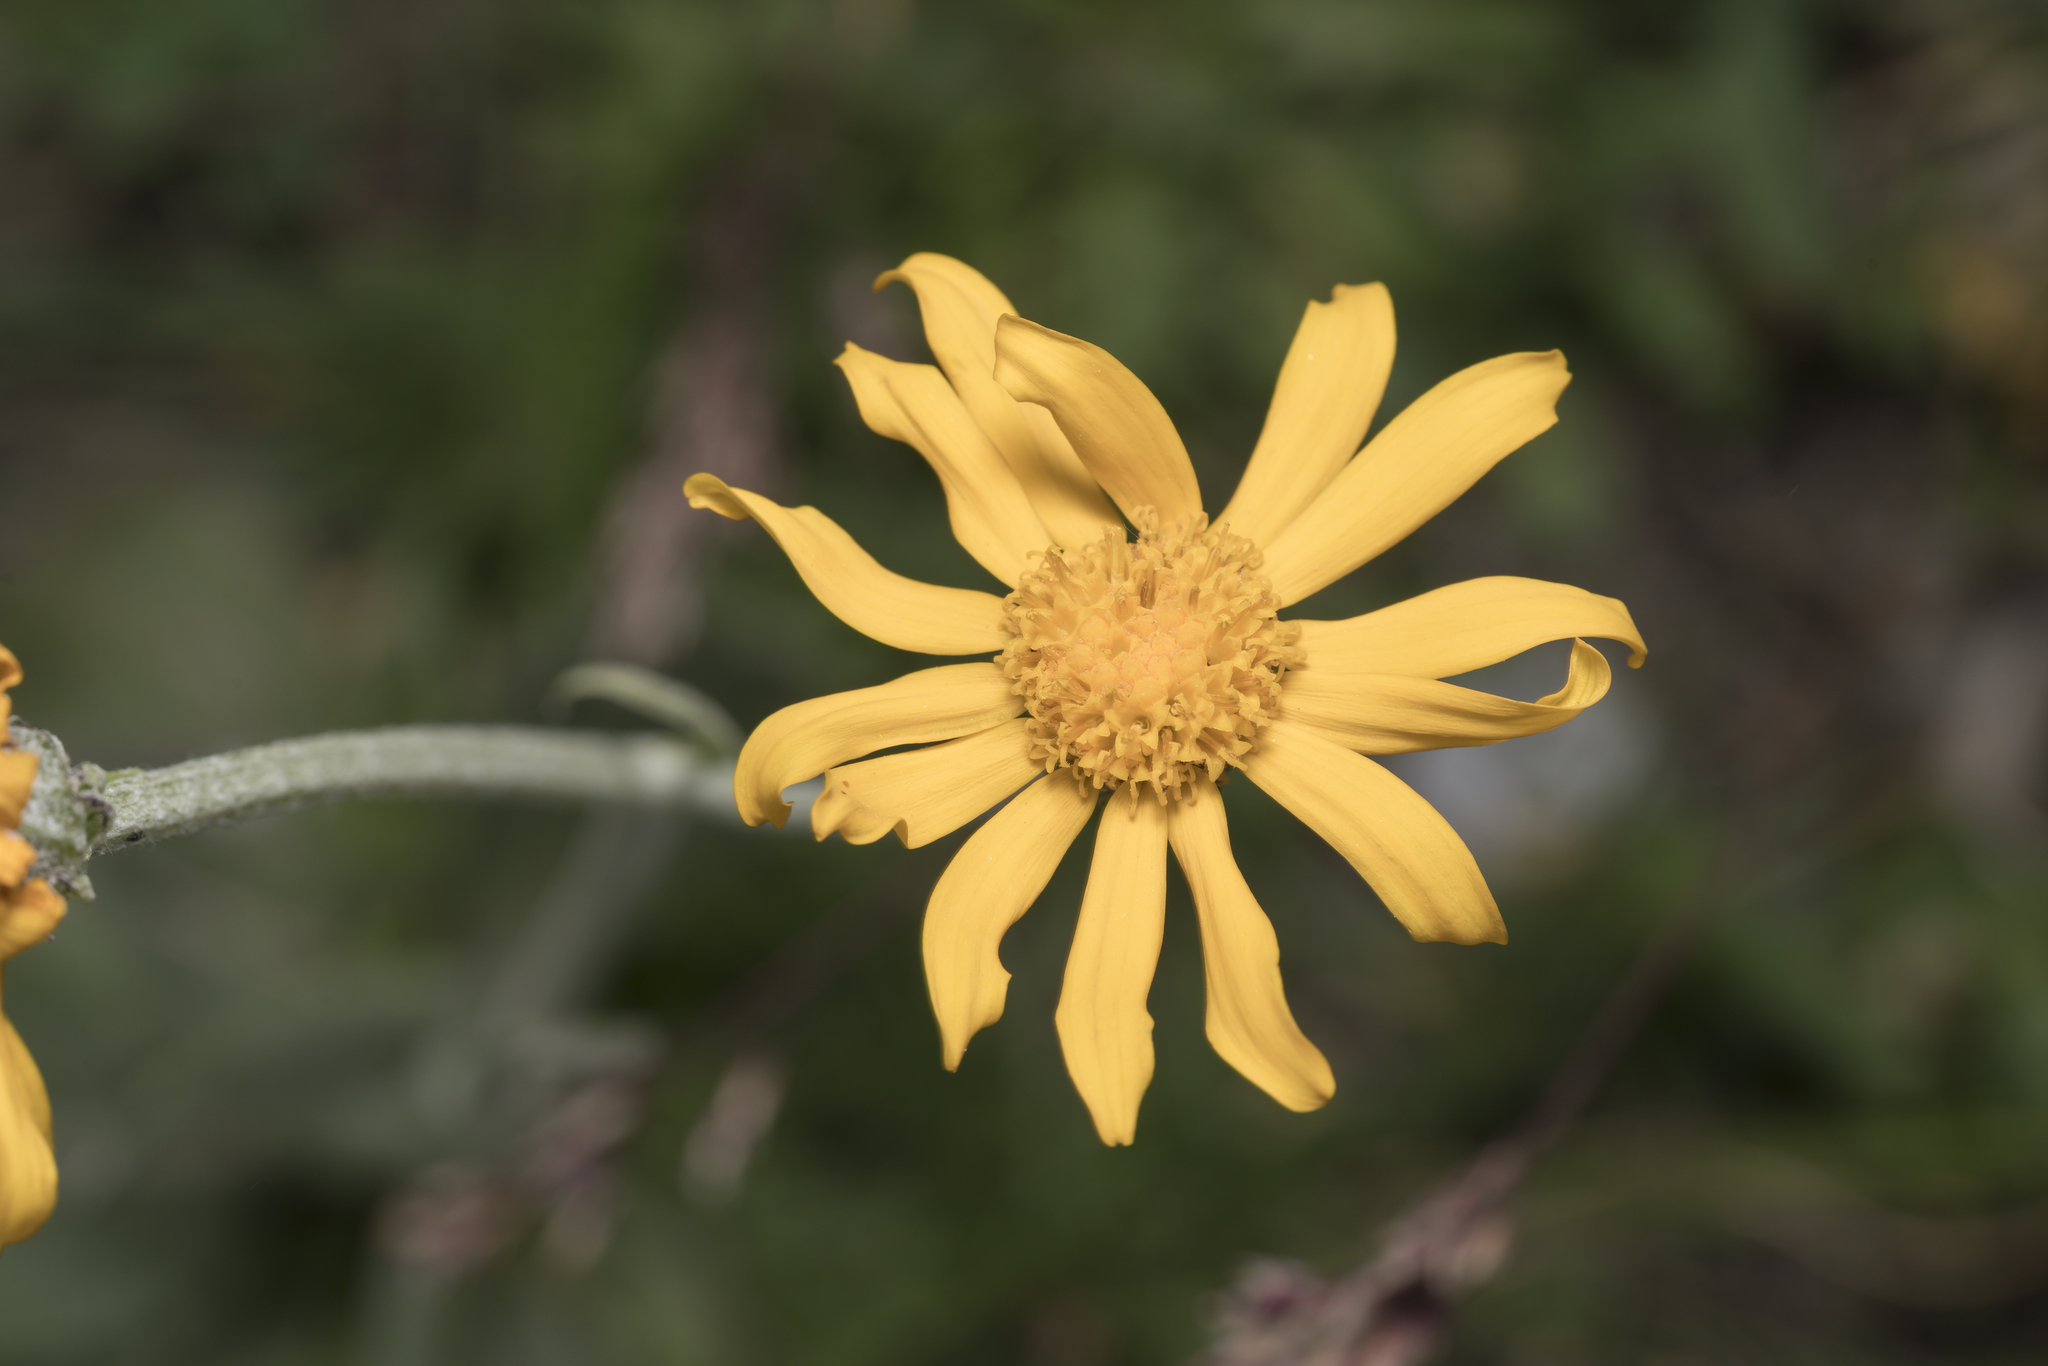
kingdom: Plantae
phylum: Tracheophyta
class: Magnoliopsida
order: Asterales
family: Asteraceae
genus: Senecio
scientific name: Senecio doronicum
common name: Chamois ragwort
